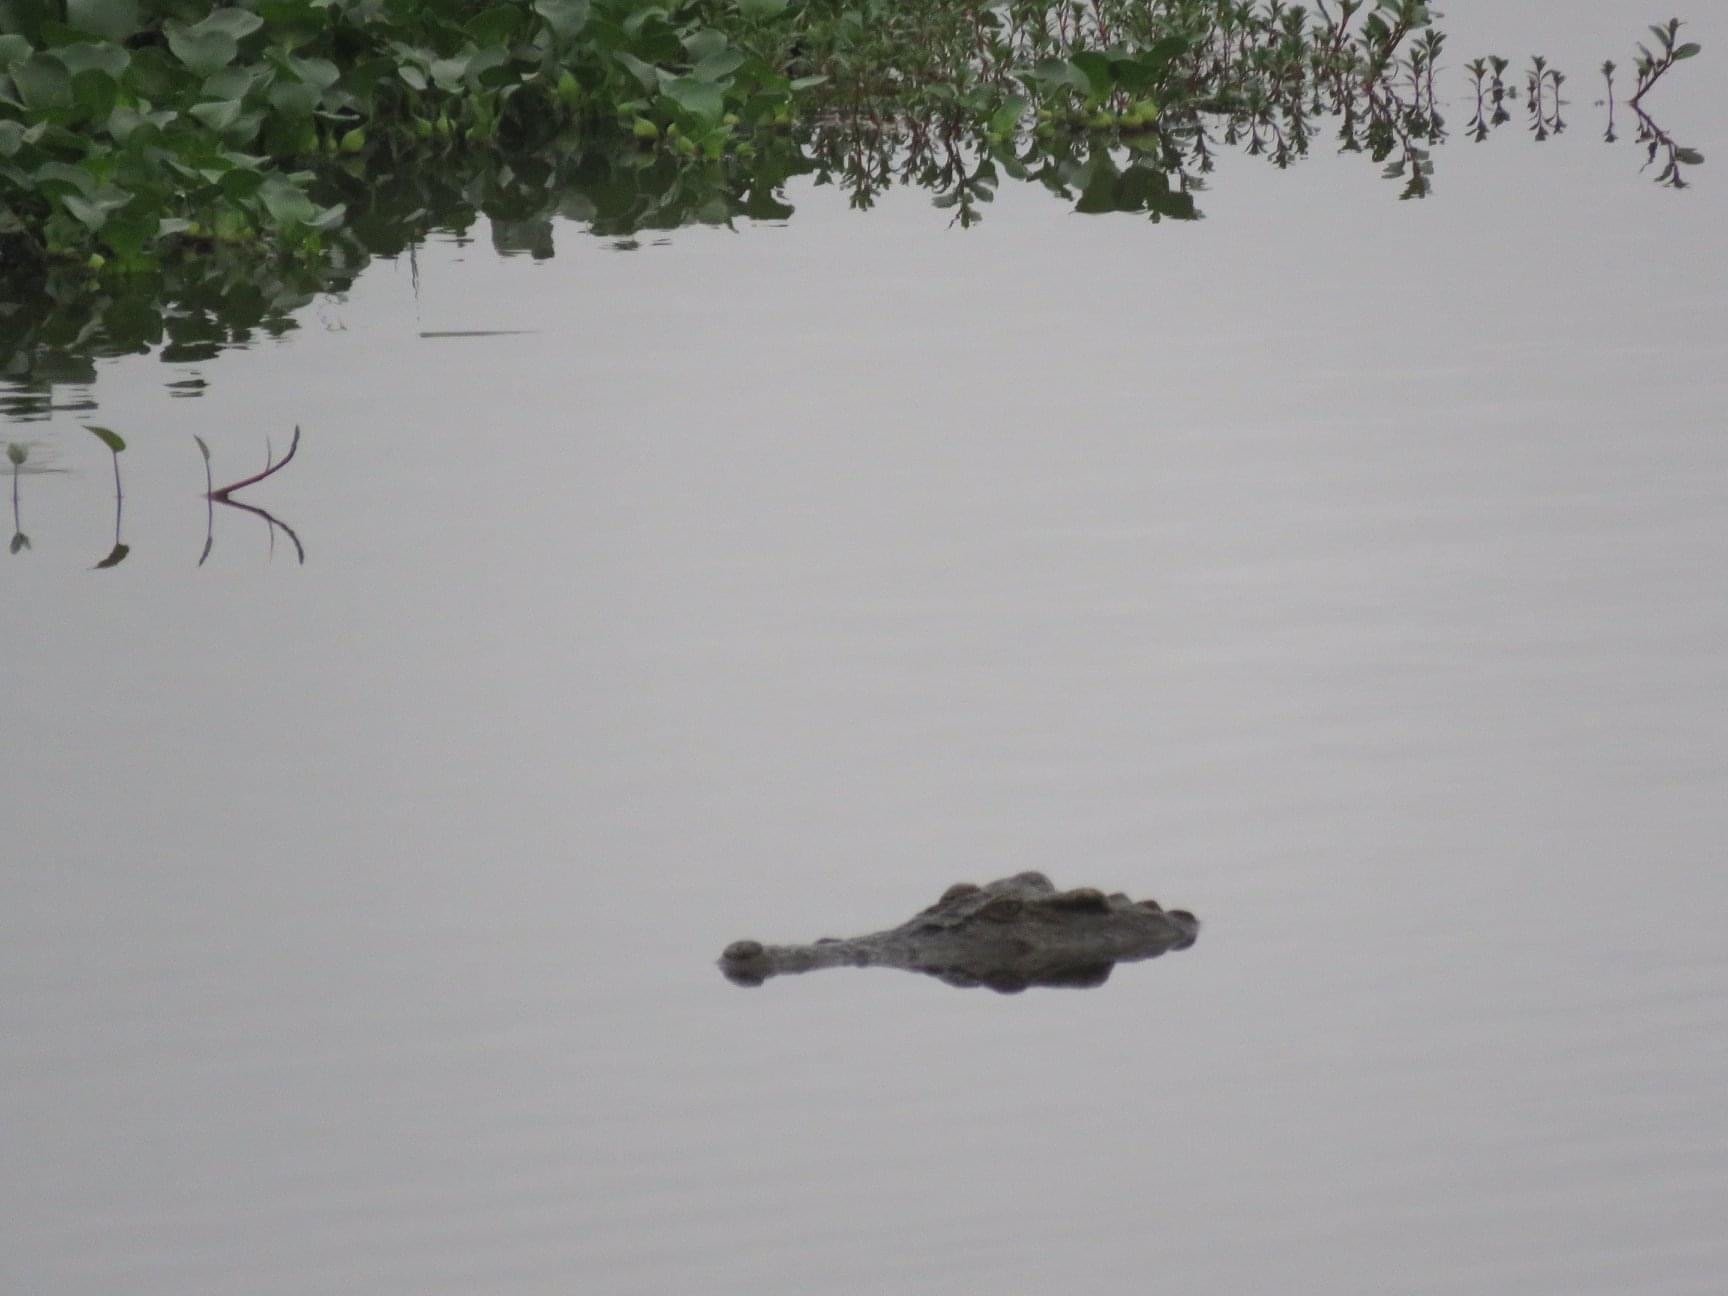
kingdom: Animalia
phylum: Chordata
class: Crocodylia
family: Crocodylidae
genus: Crocodylus
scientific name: Crocodylus siamensis
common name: Siamese crocodile
